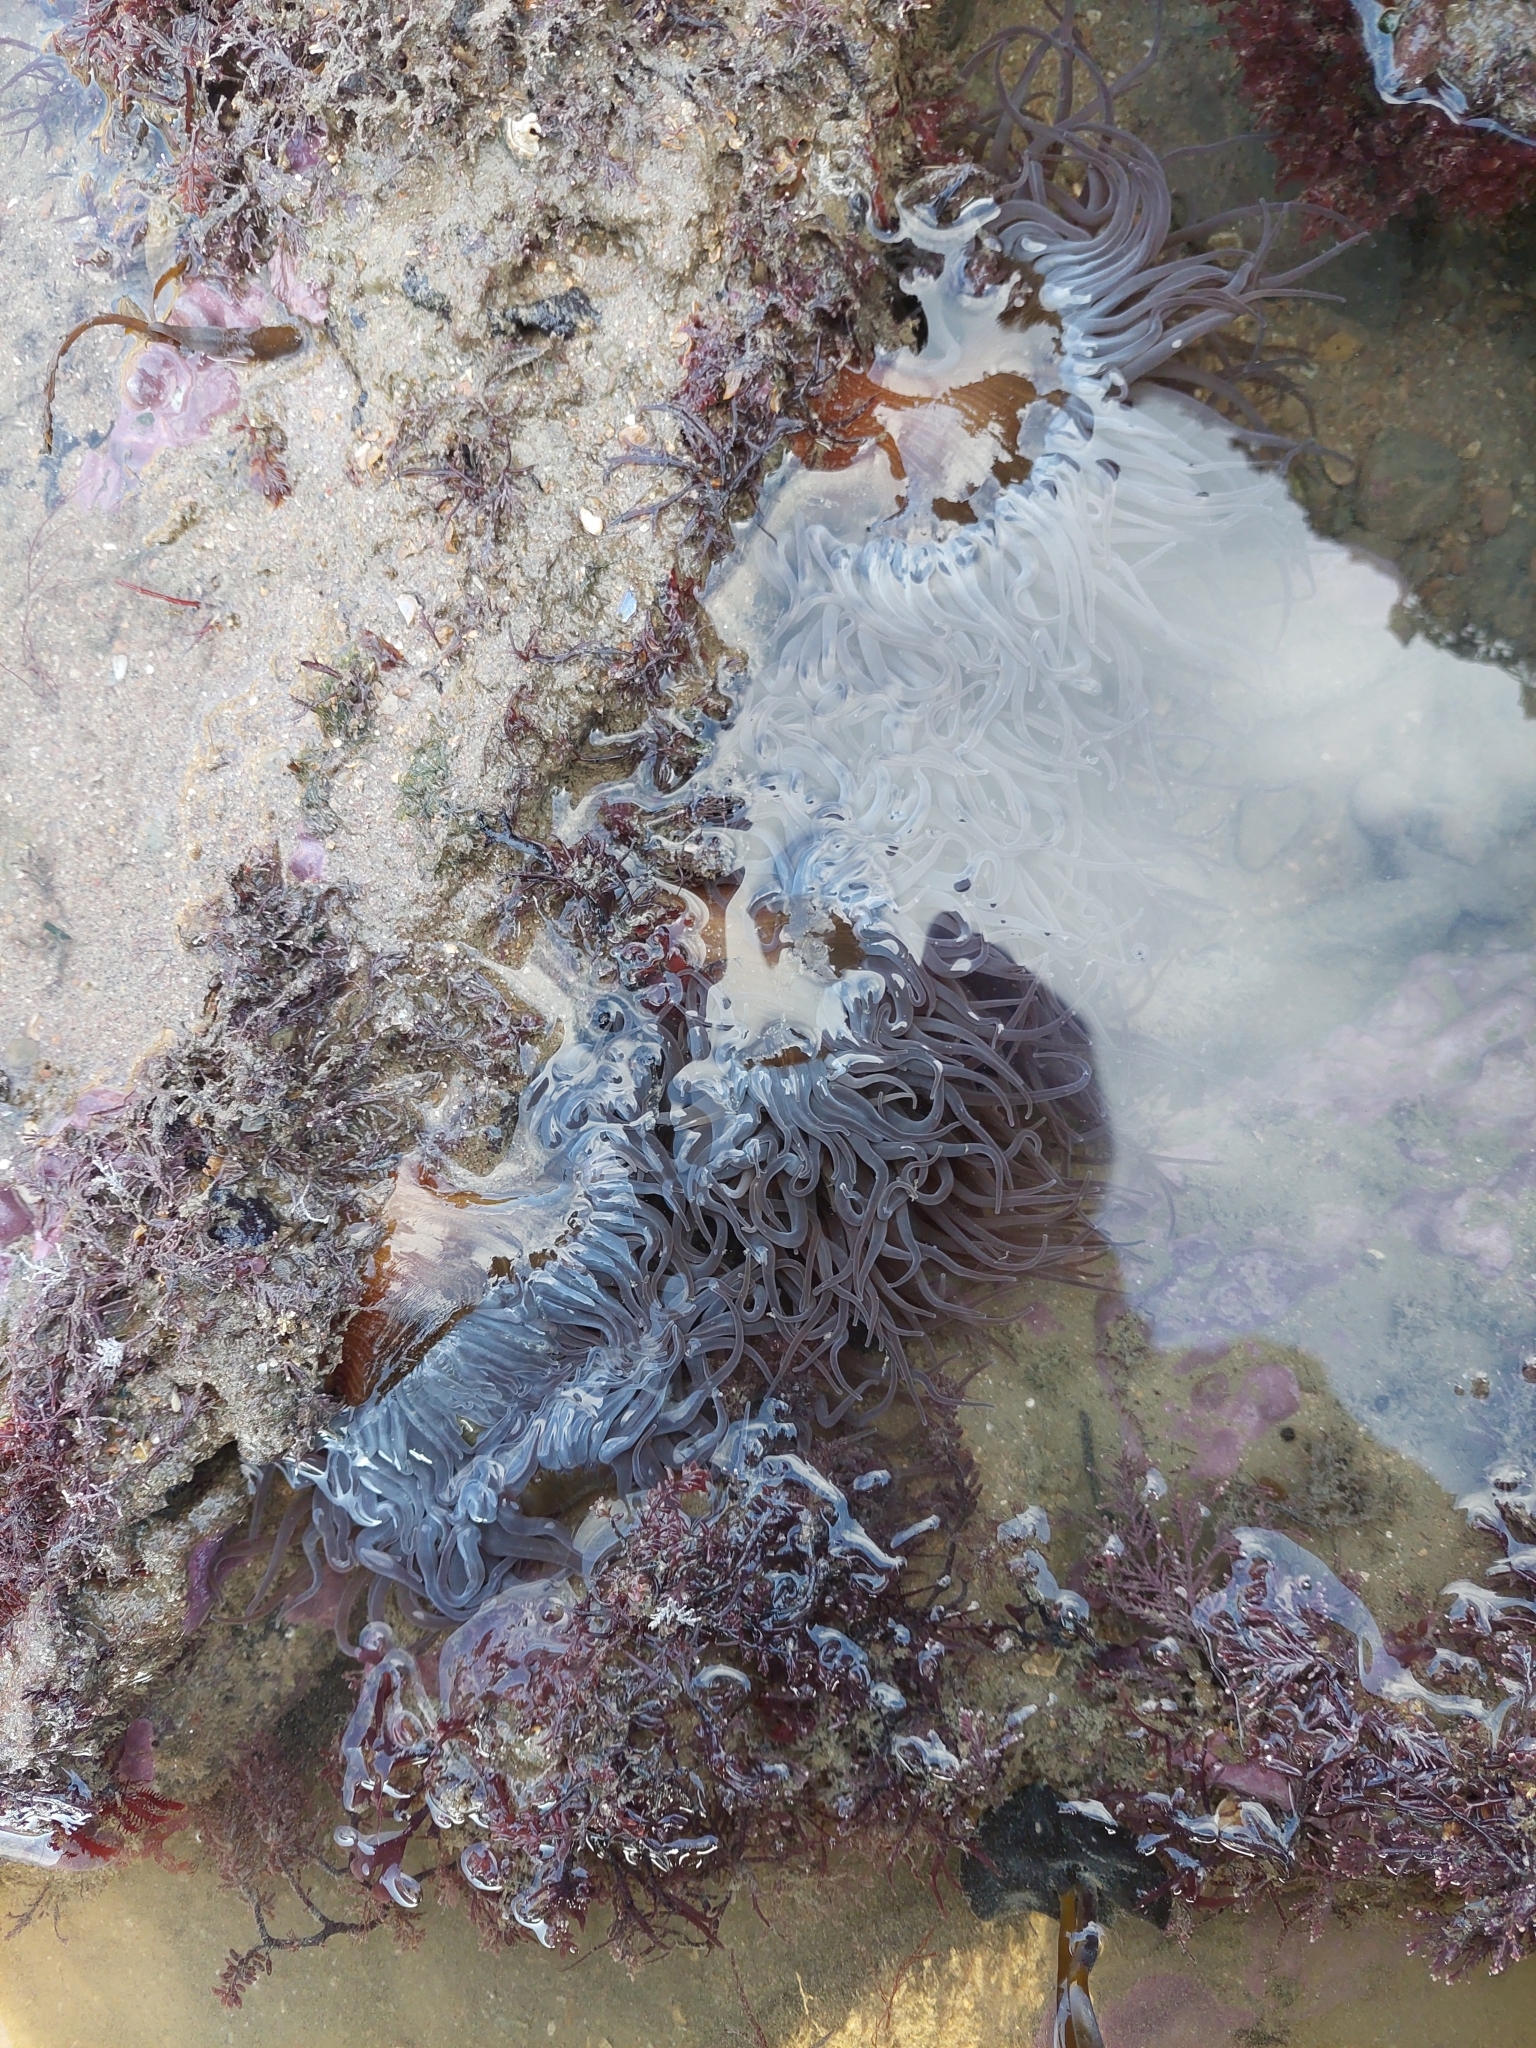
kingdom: Animalia
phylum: Cnidaria
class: Anthozoa
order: Actiniaria
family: Actiniidae
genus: Anemonia
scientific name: Anemonia viridis
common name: Snakelocks anemone
